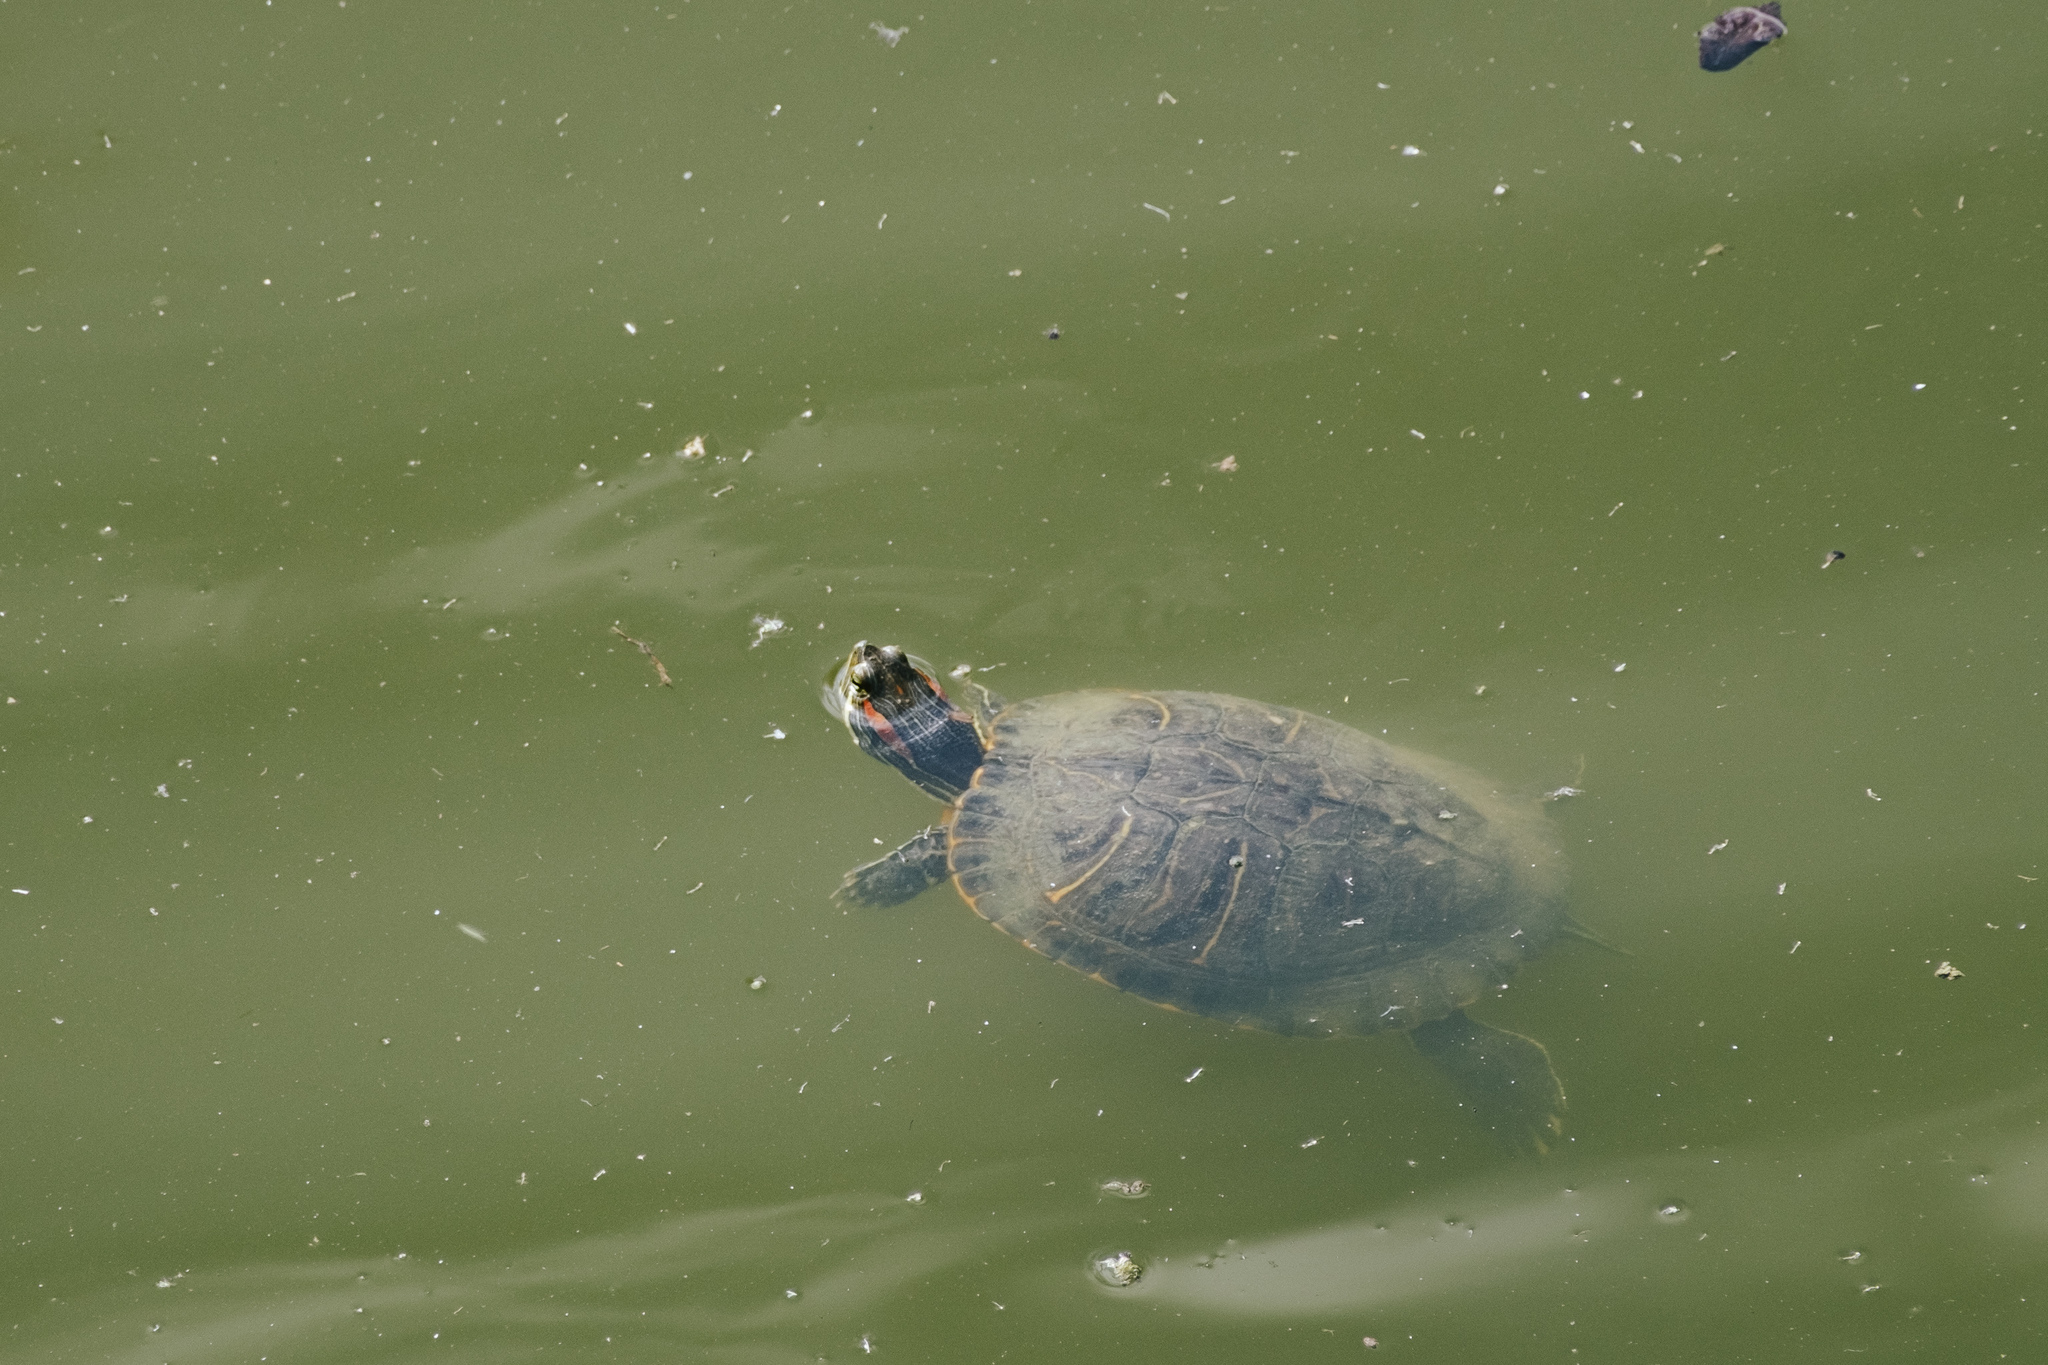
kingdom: Animalia
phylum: Chordata
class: Testudines
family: Emydidae
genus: Trachemys
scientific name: Trachemys scripta
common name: Slider
